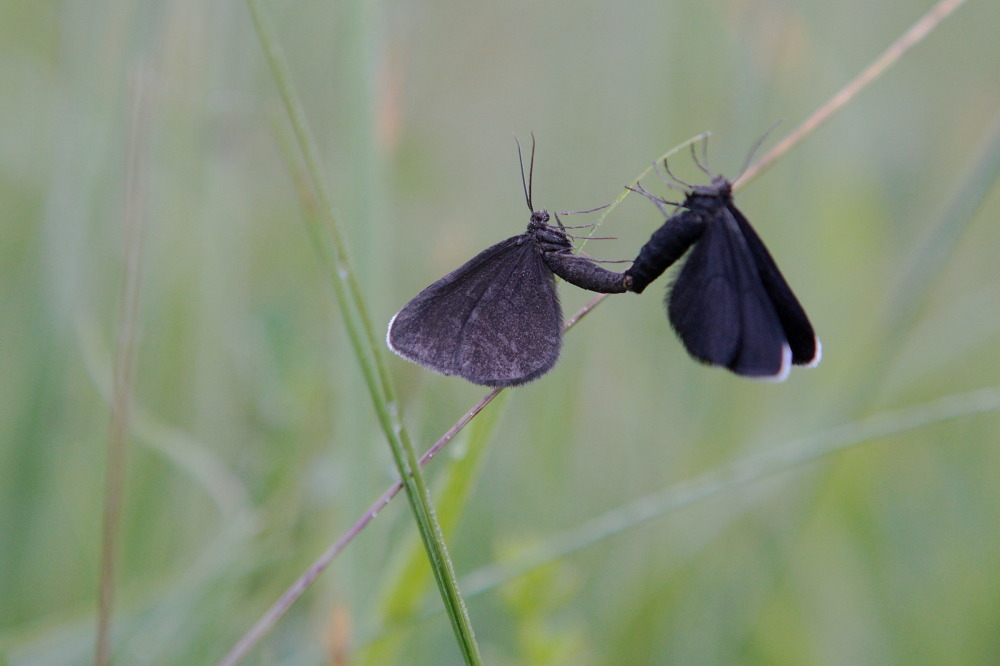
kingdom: Animalia
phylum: Arthropoda
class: Insecta
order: Lepidoptera
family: Geometridae
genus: Odezia
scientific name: Odezia atrata
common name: Chimney sweeper
